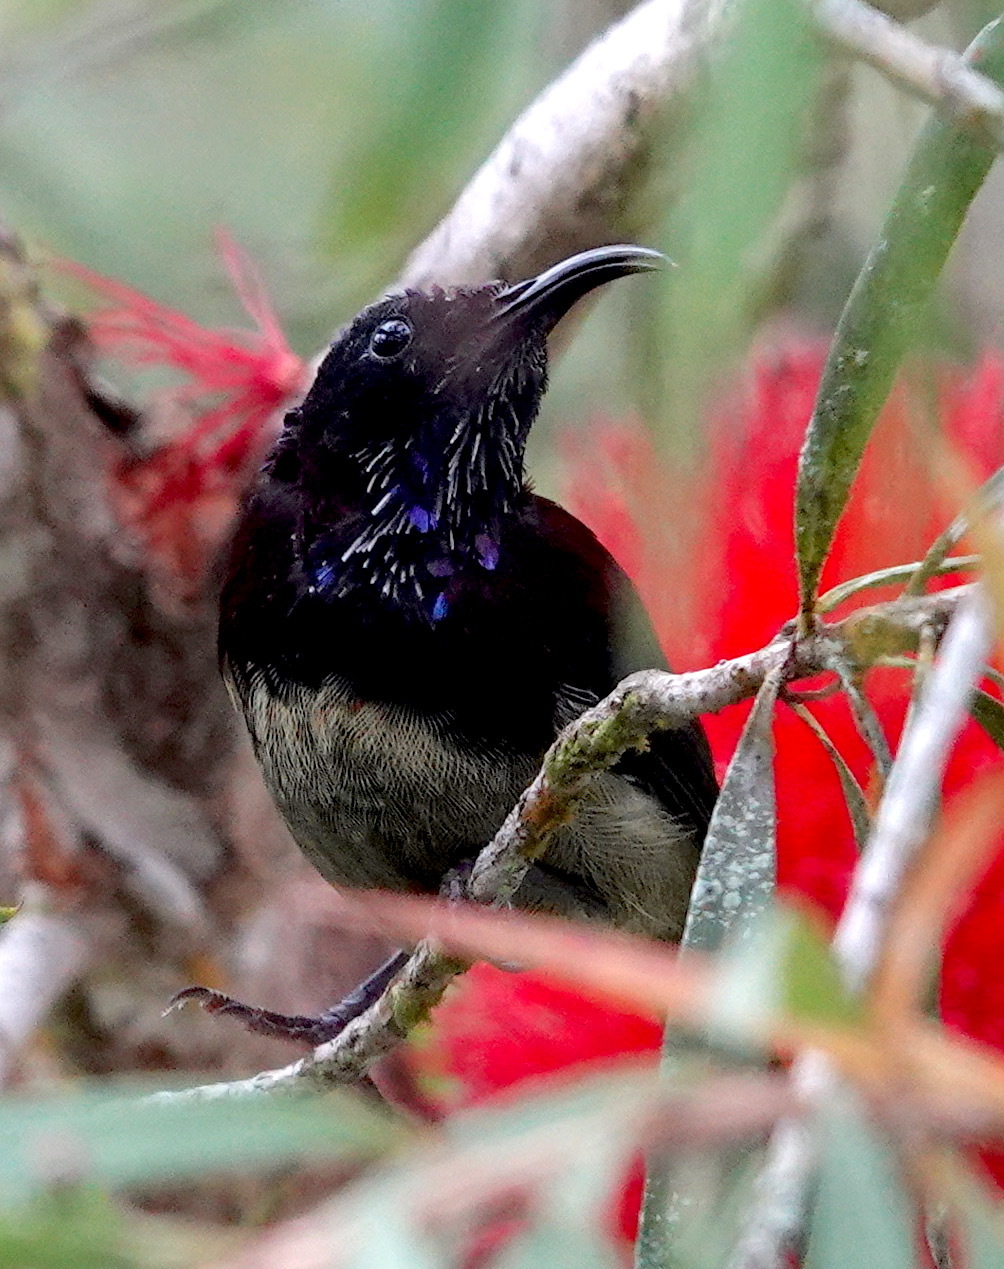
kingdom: Animalia
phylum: Chordata
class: Aves
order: Passeriformes
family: Nectariniidae
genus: Aethopyga
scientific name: Aethopyga saturata
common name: Black-throated sunbird
